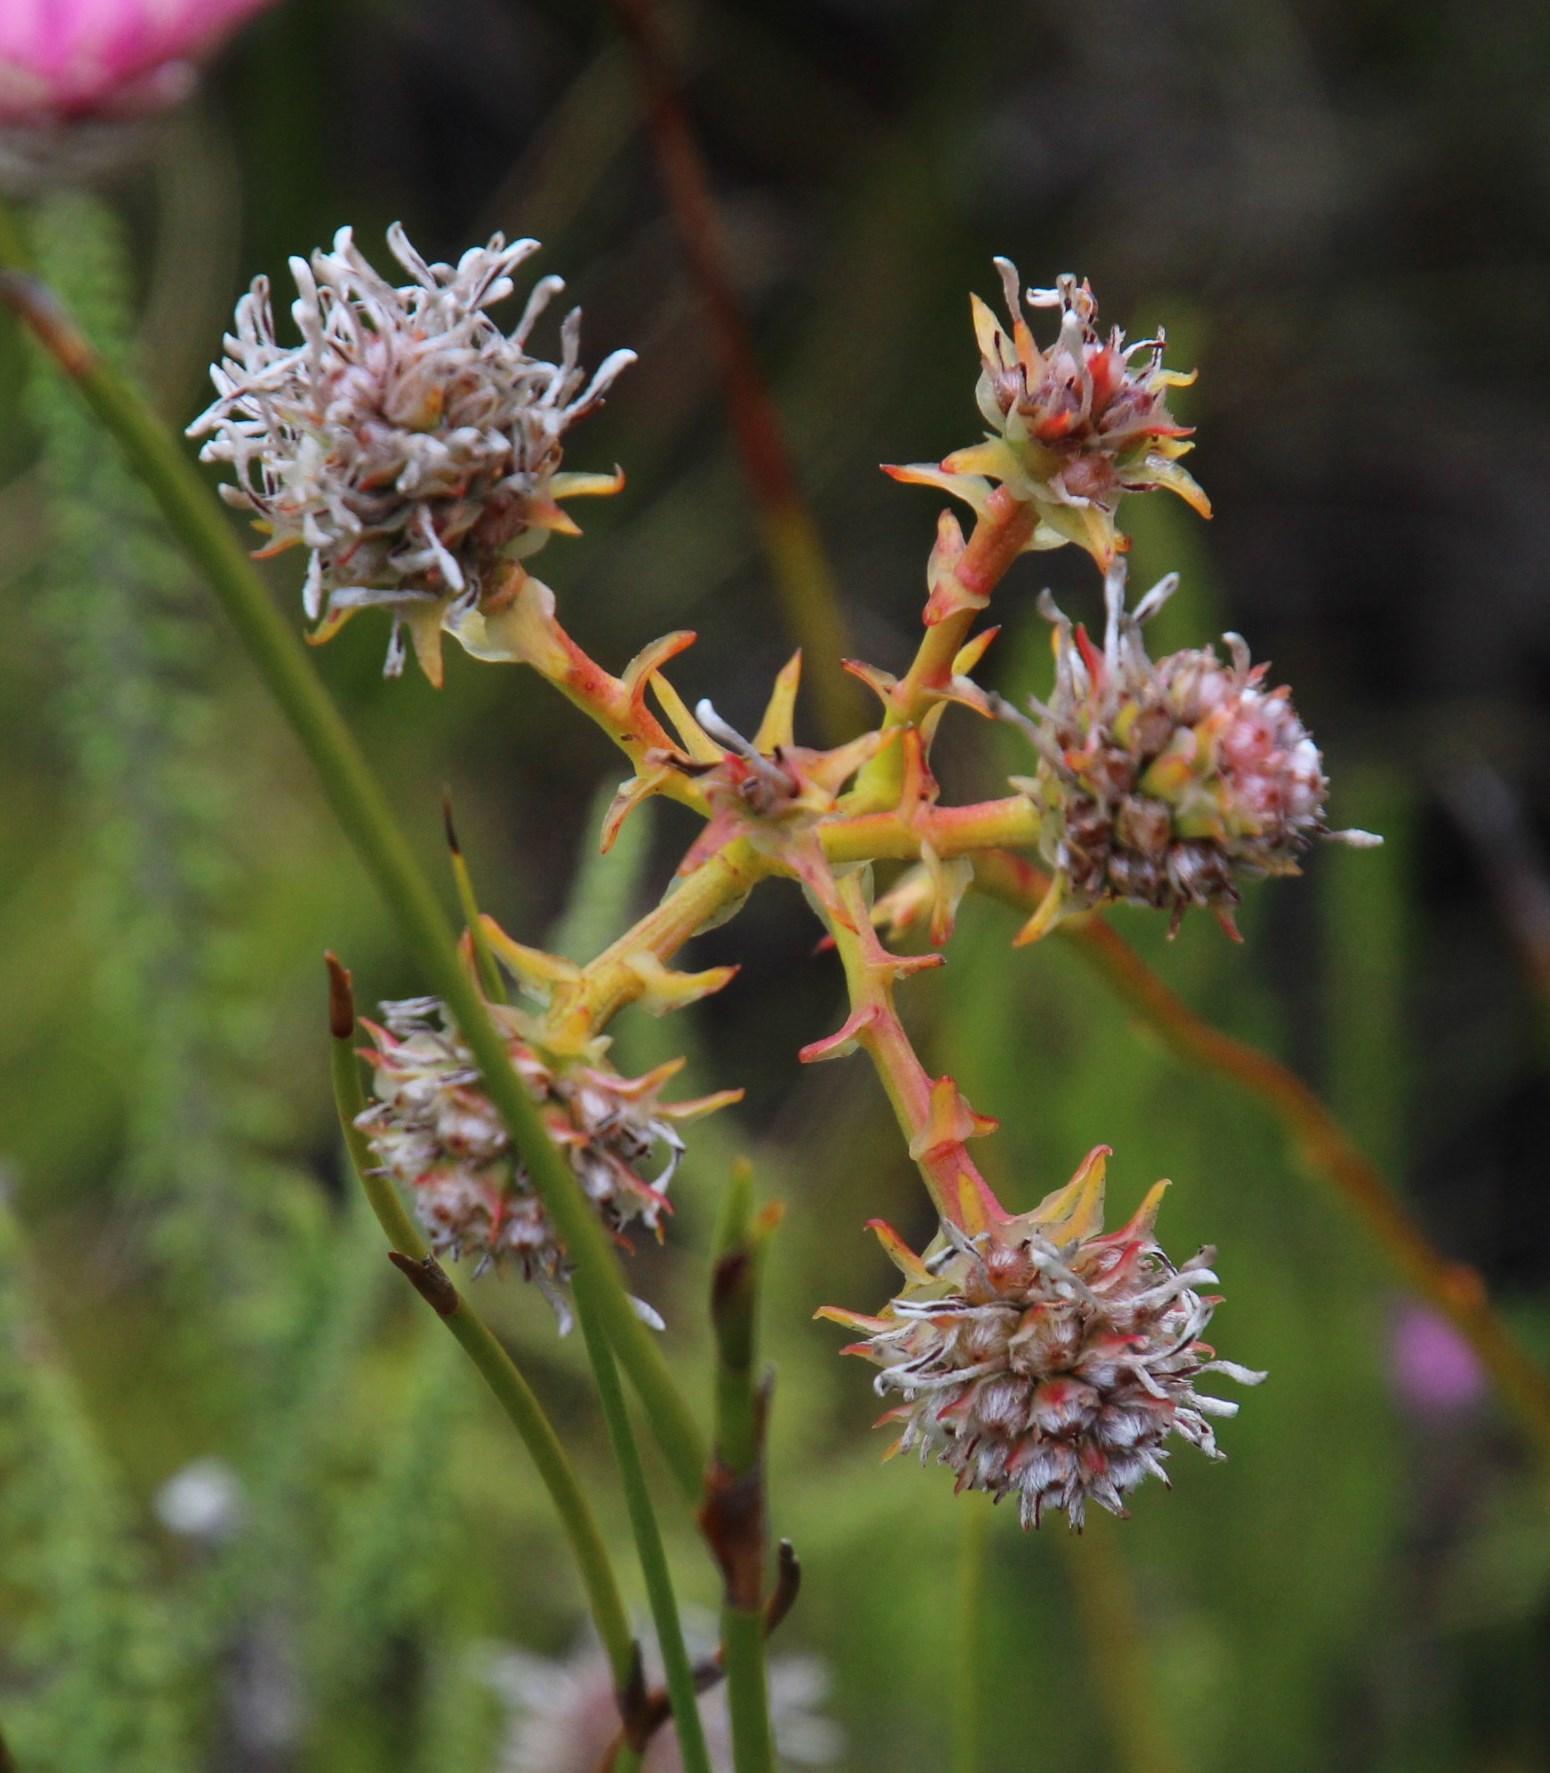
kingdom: Plantae
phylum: Tracheophyta
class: Magnoliopsida
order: Proteales
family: Proteaceae
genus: Serruria
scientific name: Serruria elongata
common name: Long-stalk spiderhead
